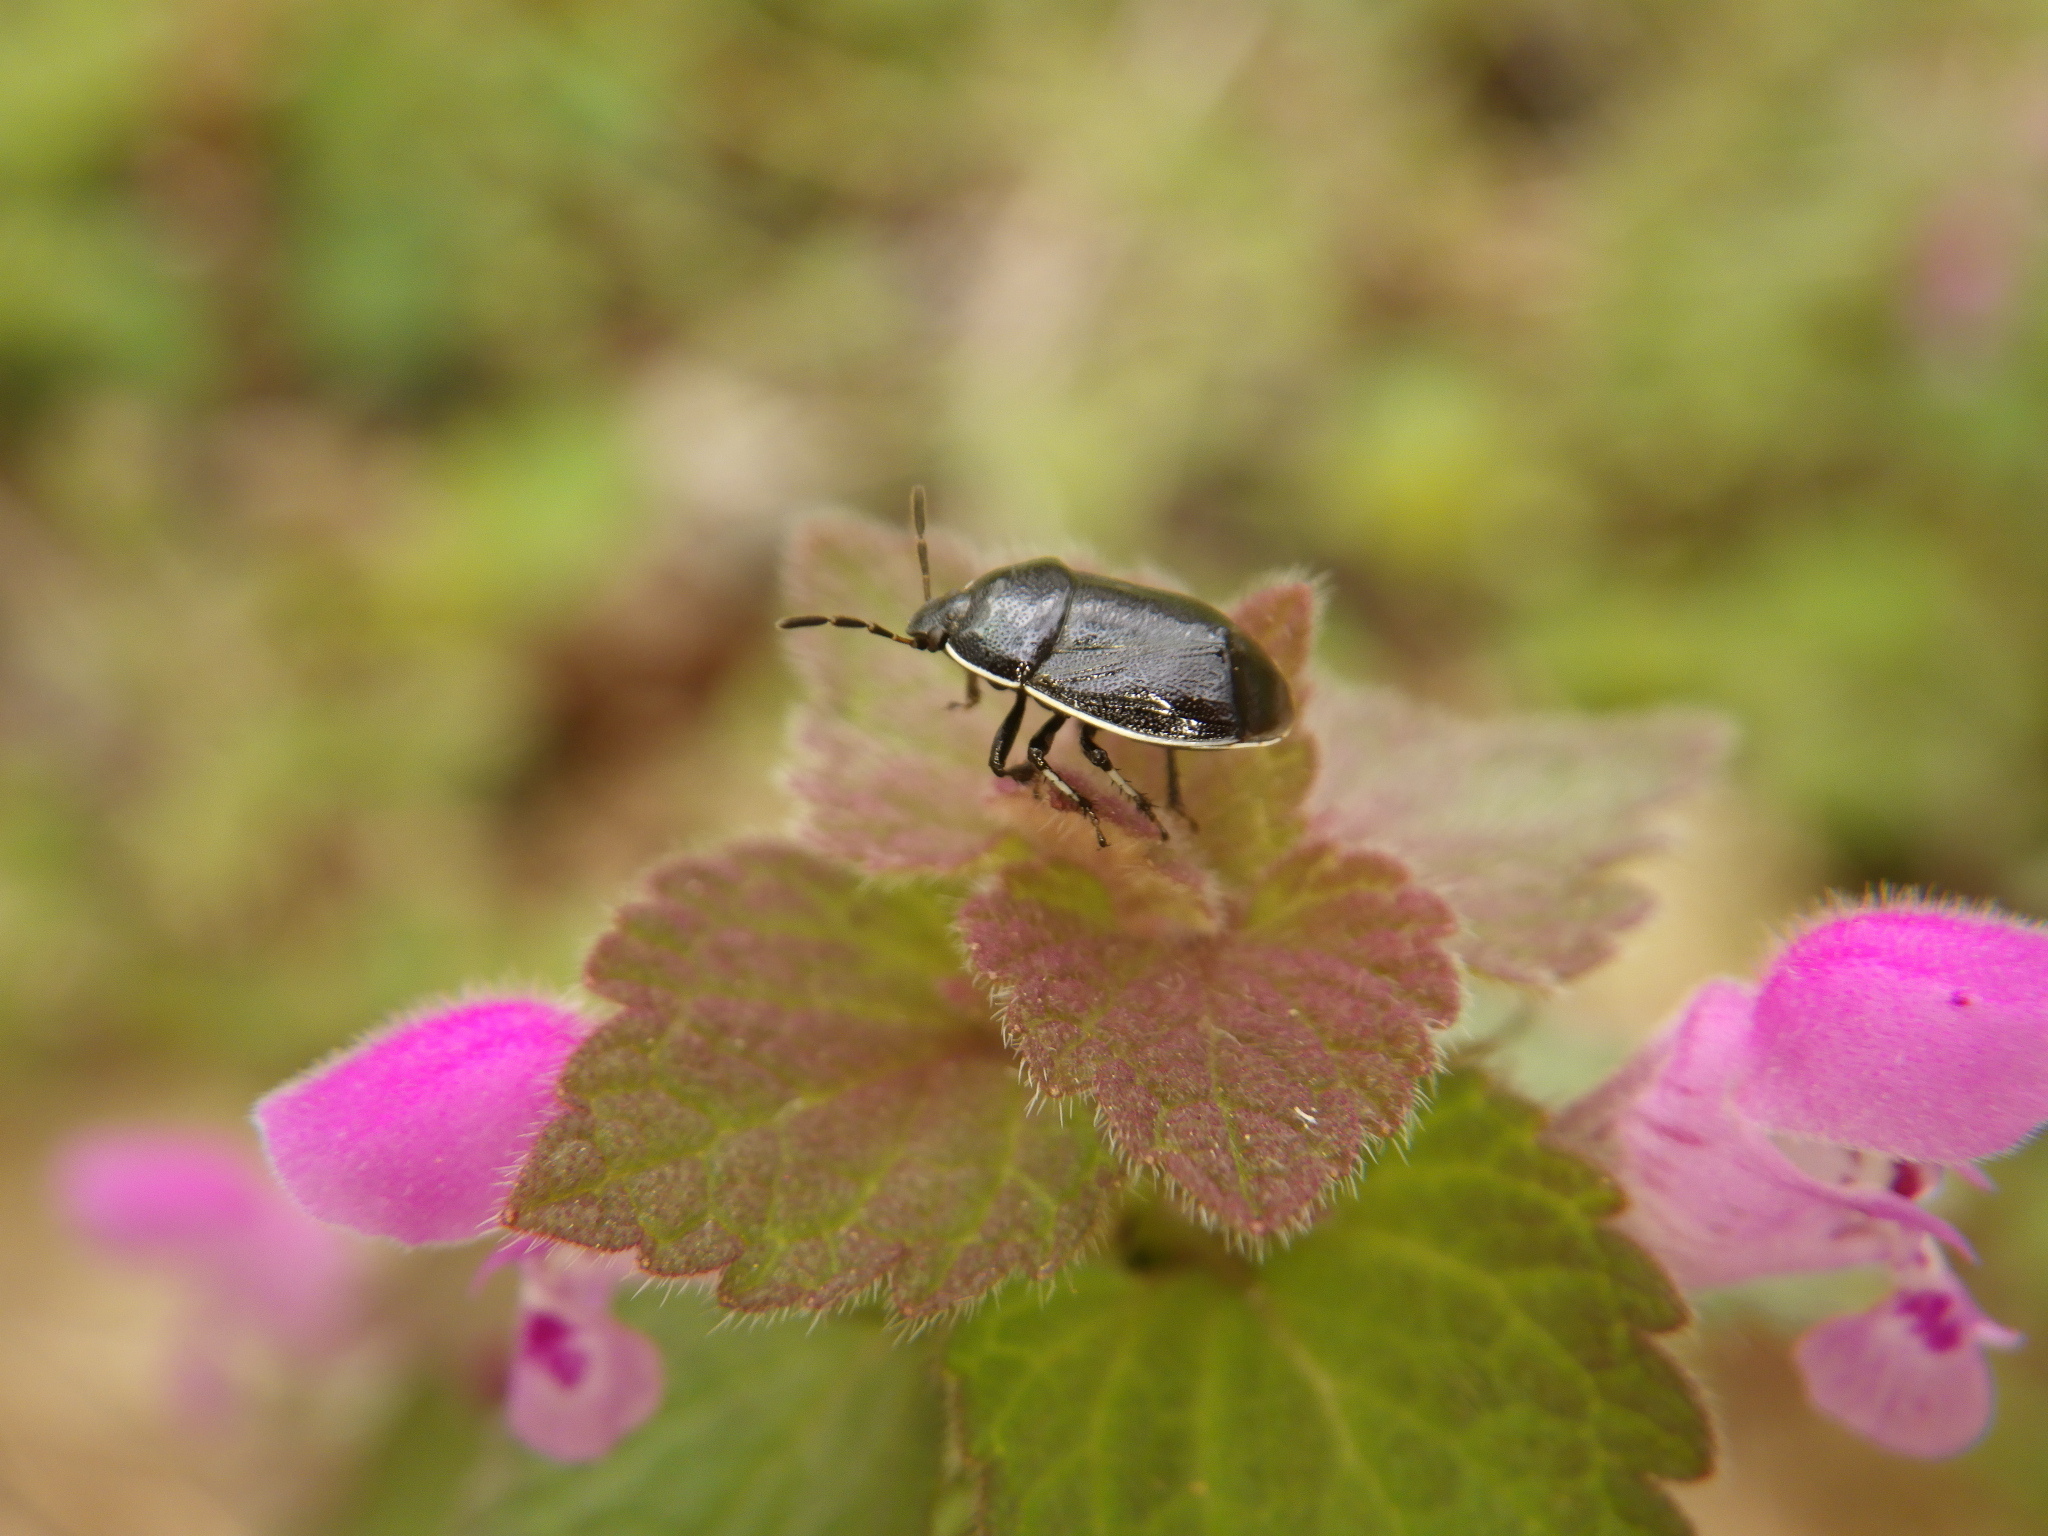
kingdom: Animalia
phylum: Arthropoda
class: Insecta
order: Hemiptera
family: Cydnidae
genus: Sehirus
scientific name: Sehirus cinctus
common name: White-margined burrower bug
